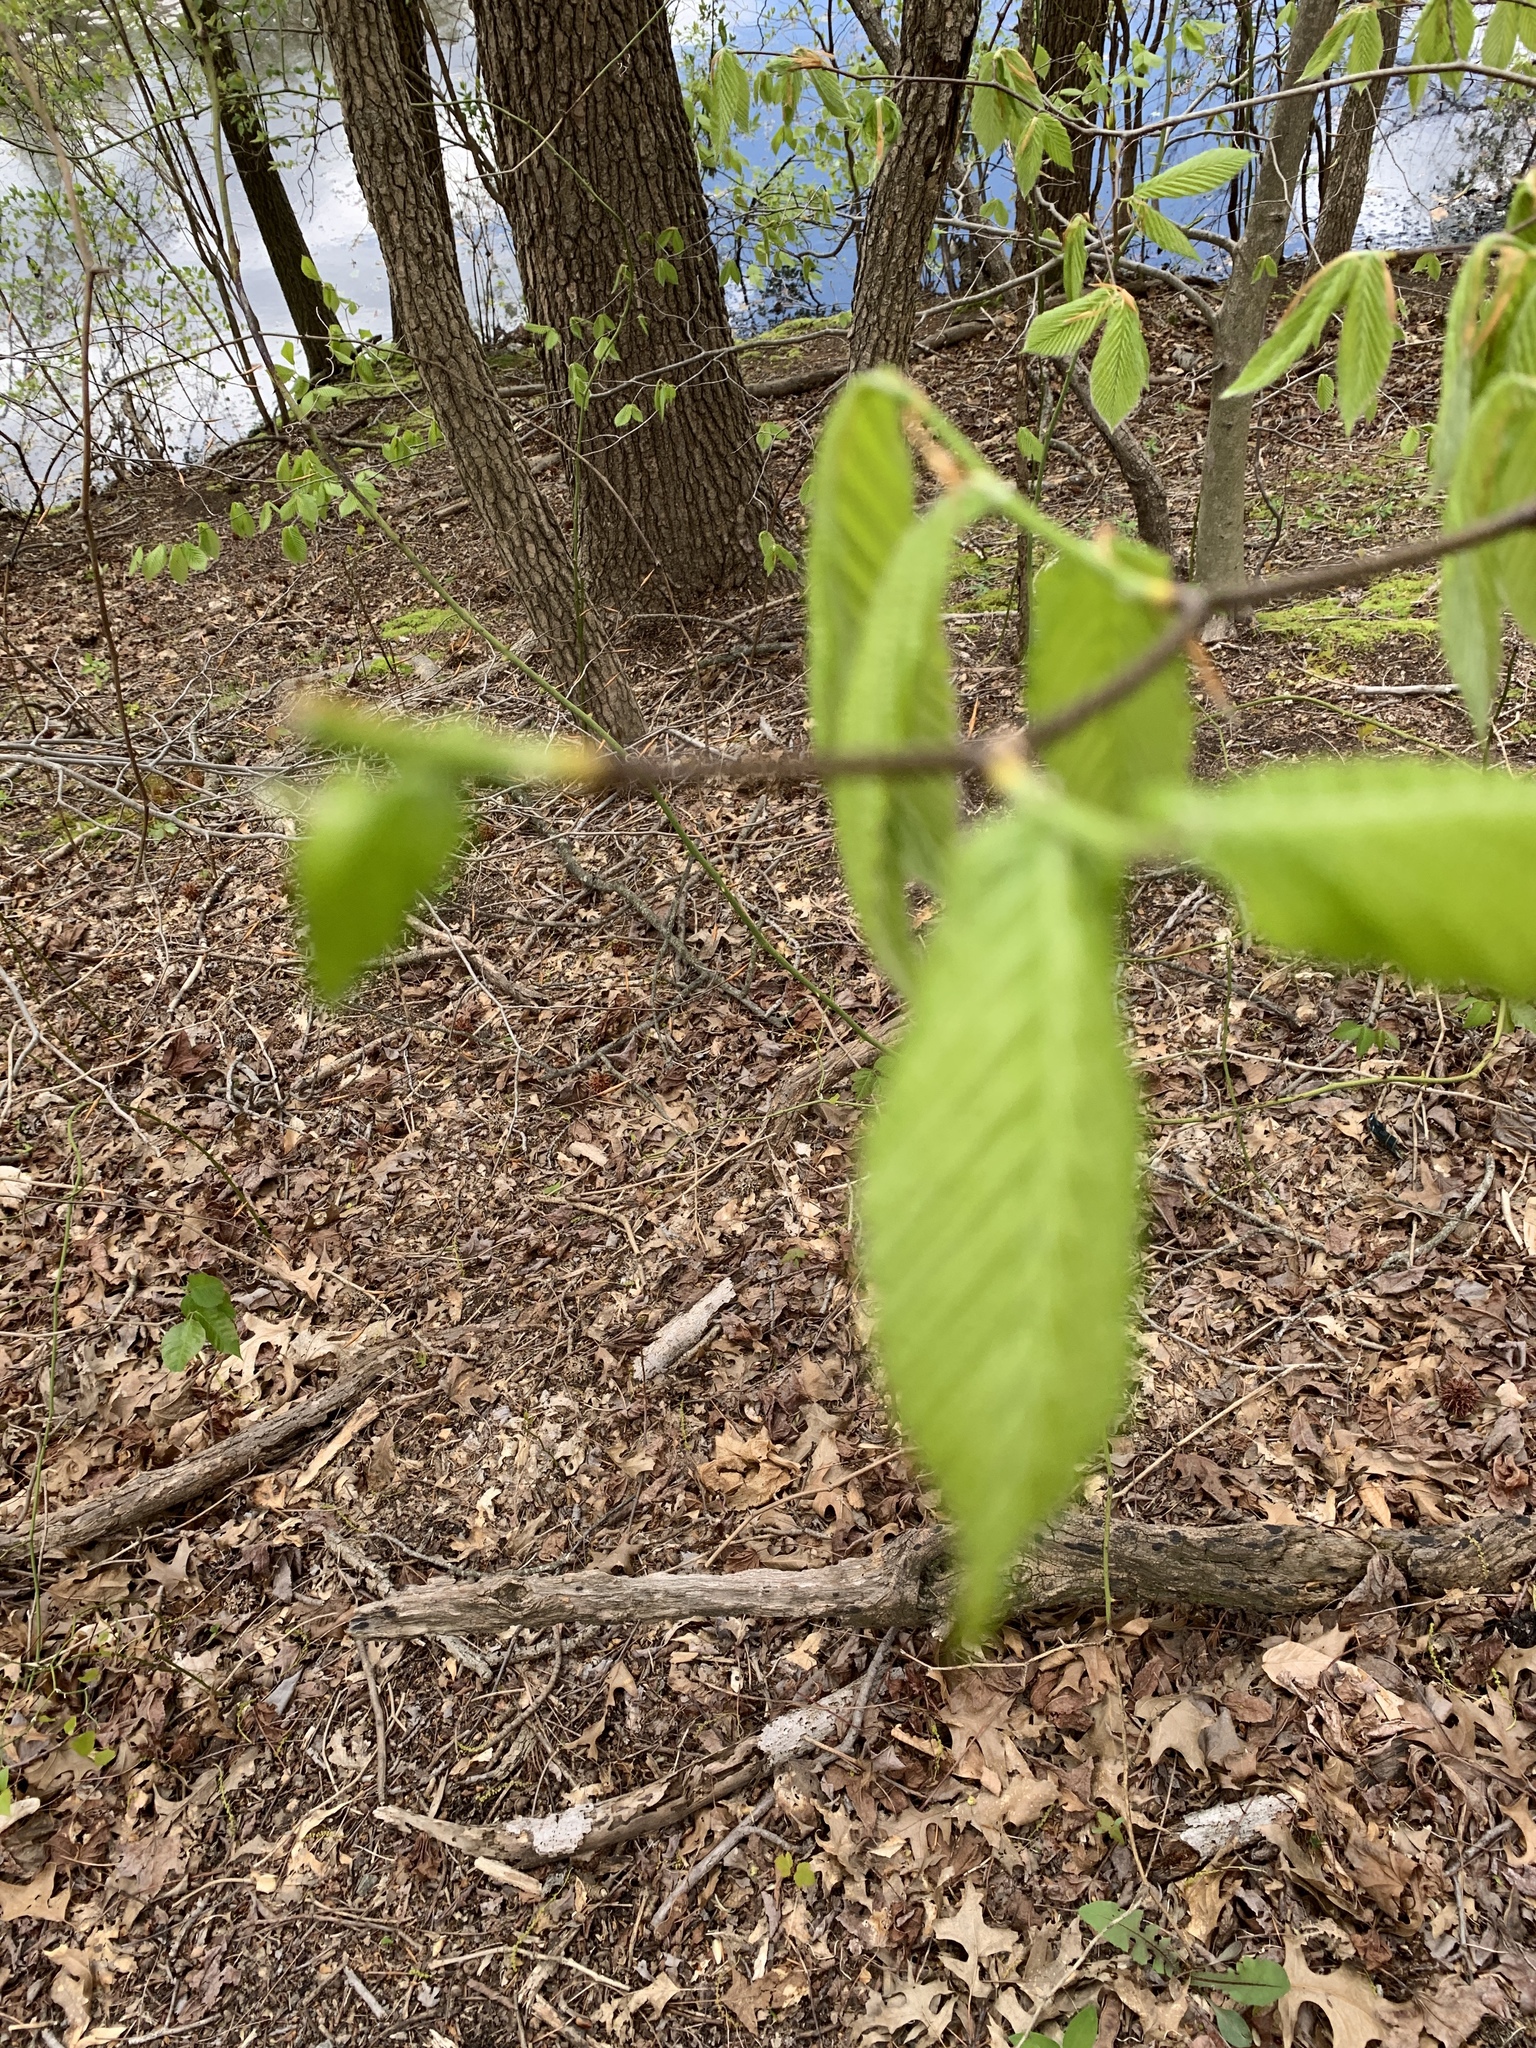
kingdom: Plantae
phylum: Tracheophyta
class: Magnoliopsida
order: Fagales
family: Fagaceae
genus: Fagus
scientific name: Fagus grandifolia
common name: American beech
